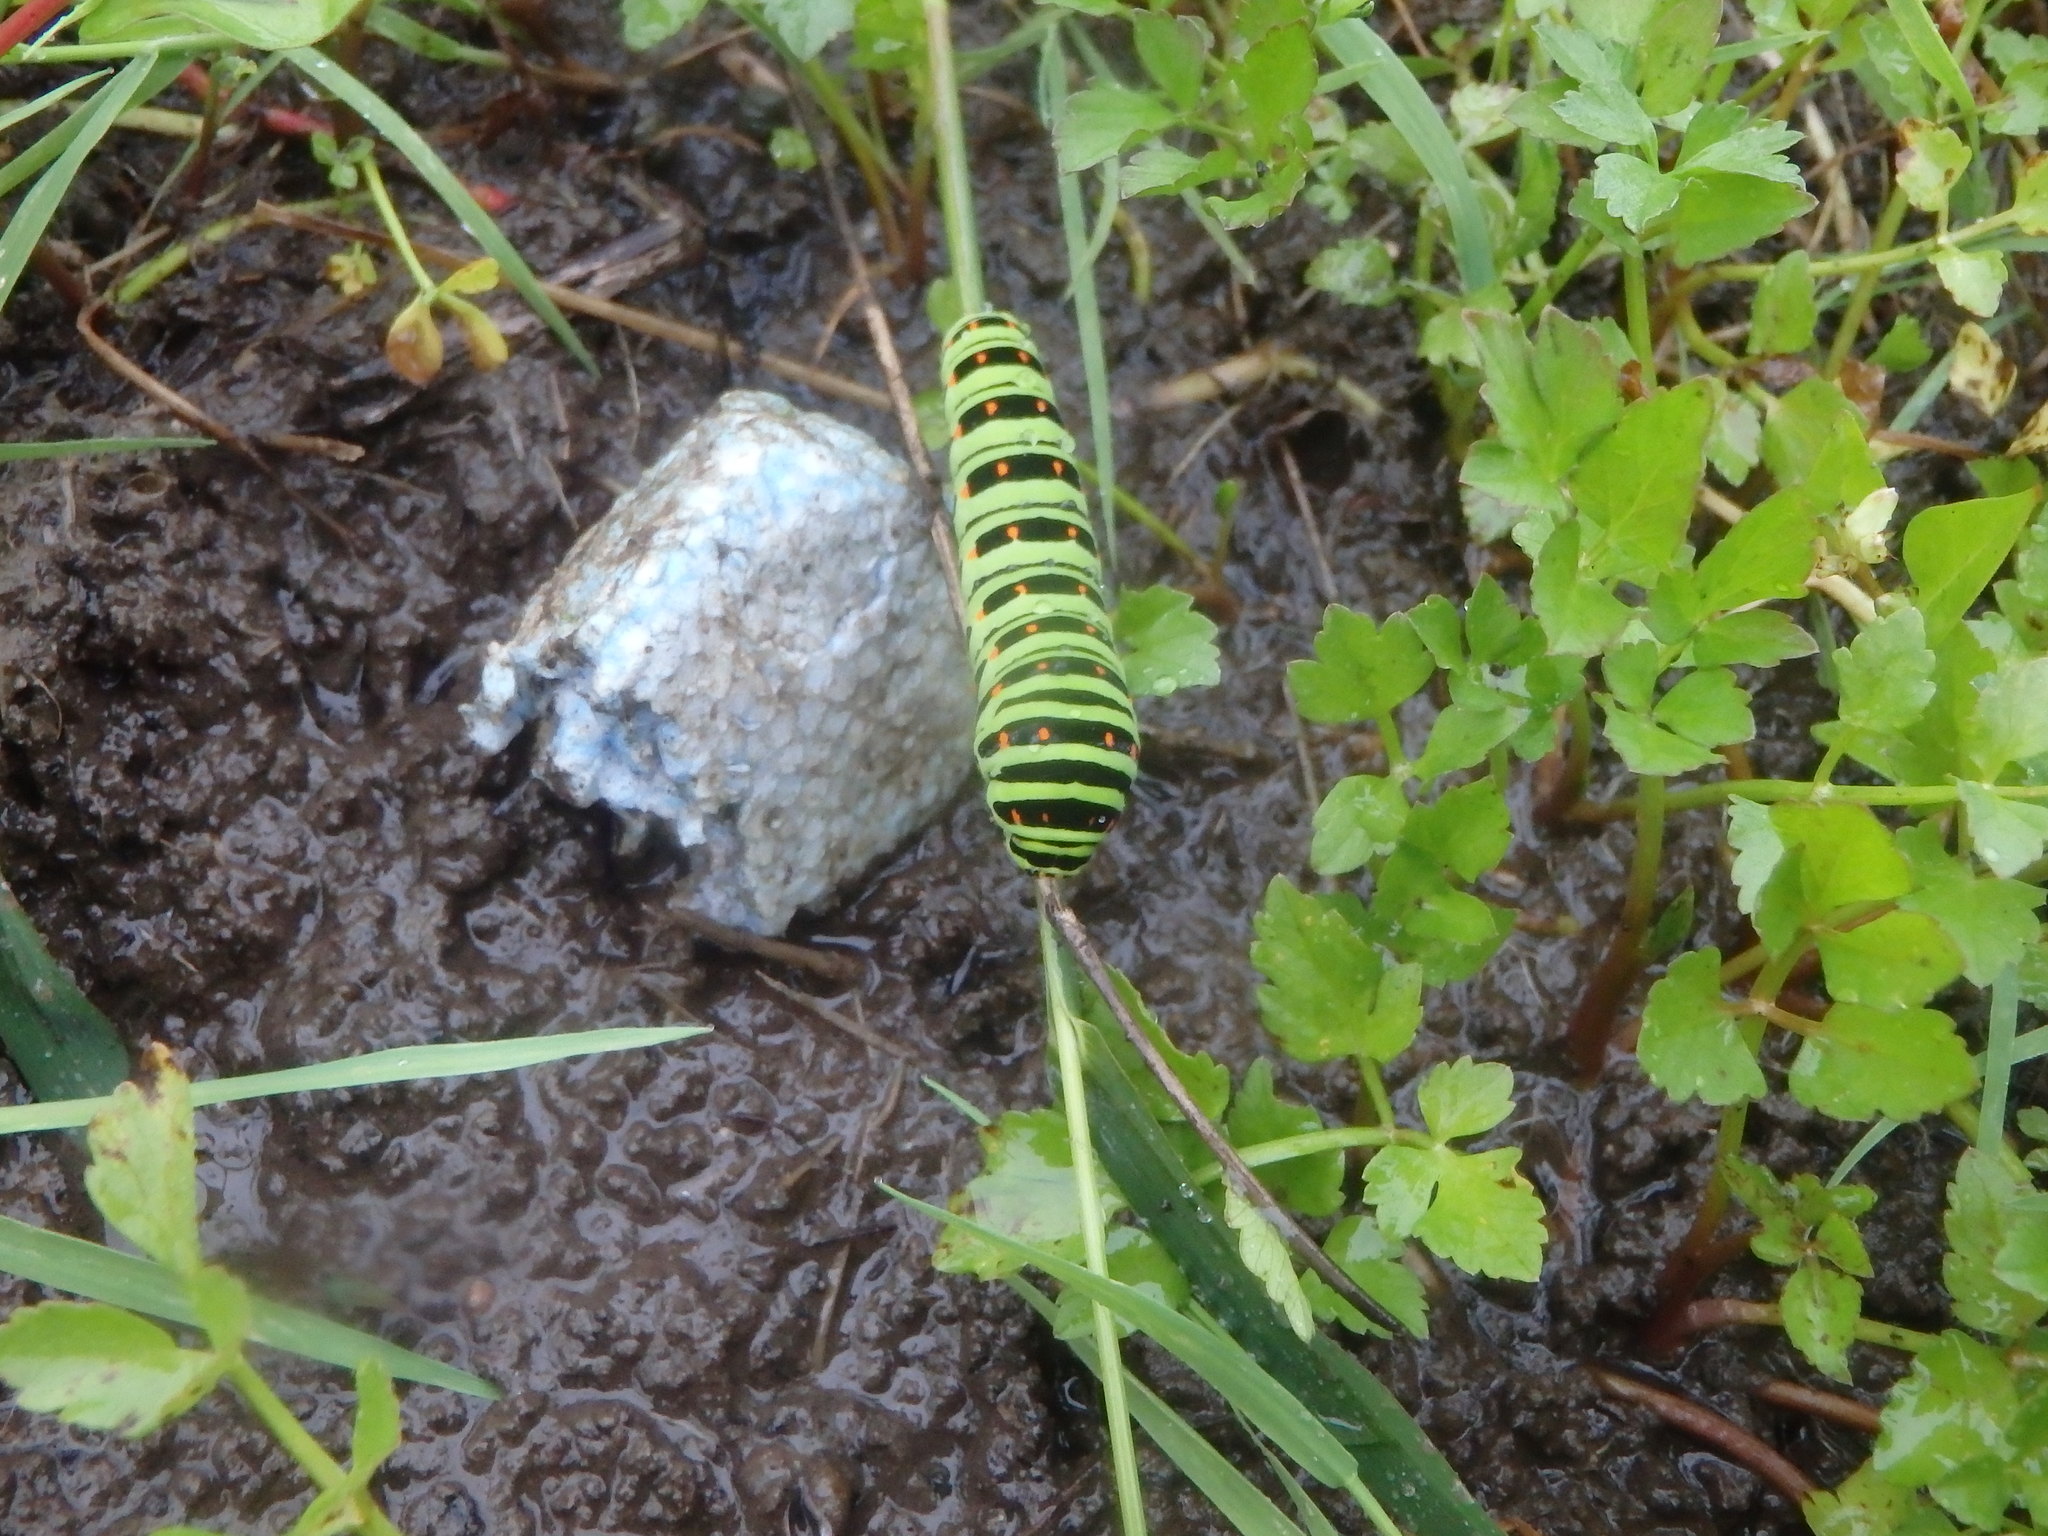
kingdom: Animalia
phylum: Arthropoda
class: Insecta
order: Lepidoptera
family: Papilionidae
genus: Papilio
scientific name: Papilio machaon
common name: Swallowtail
